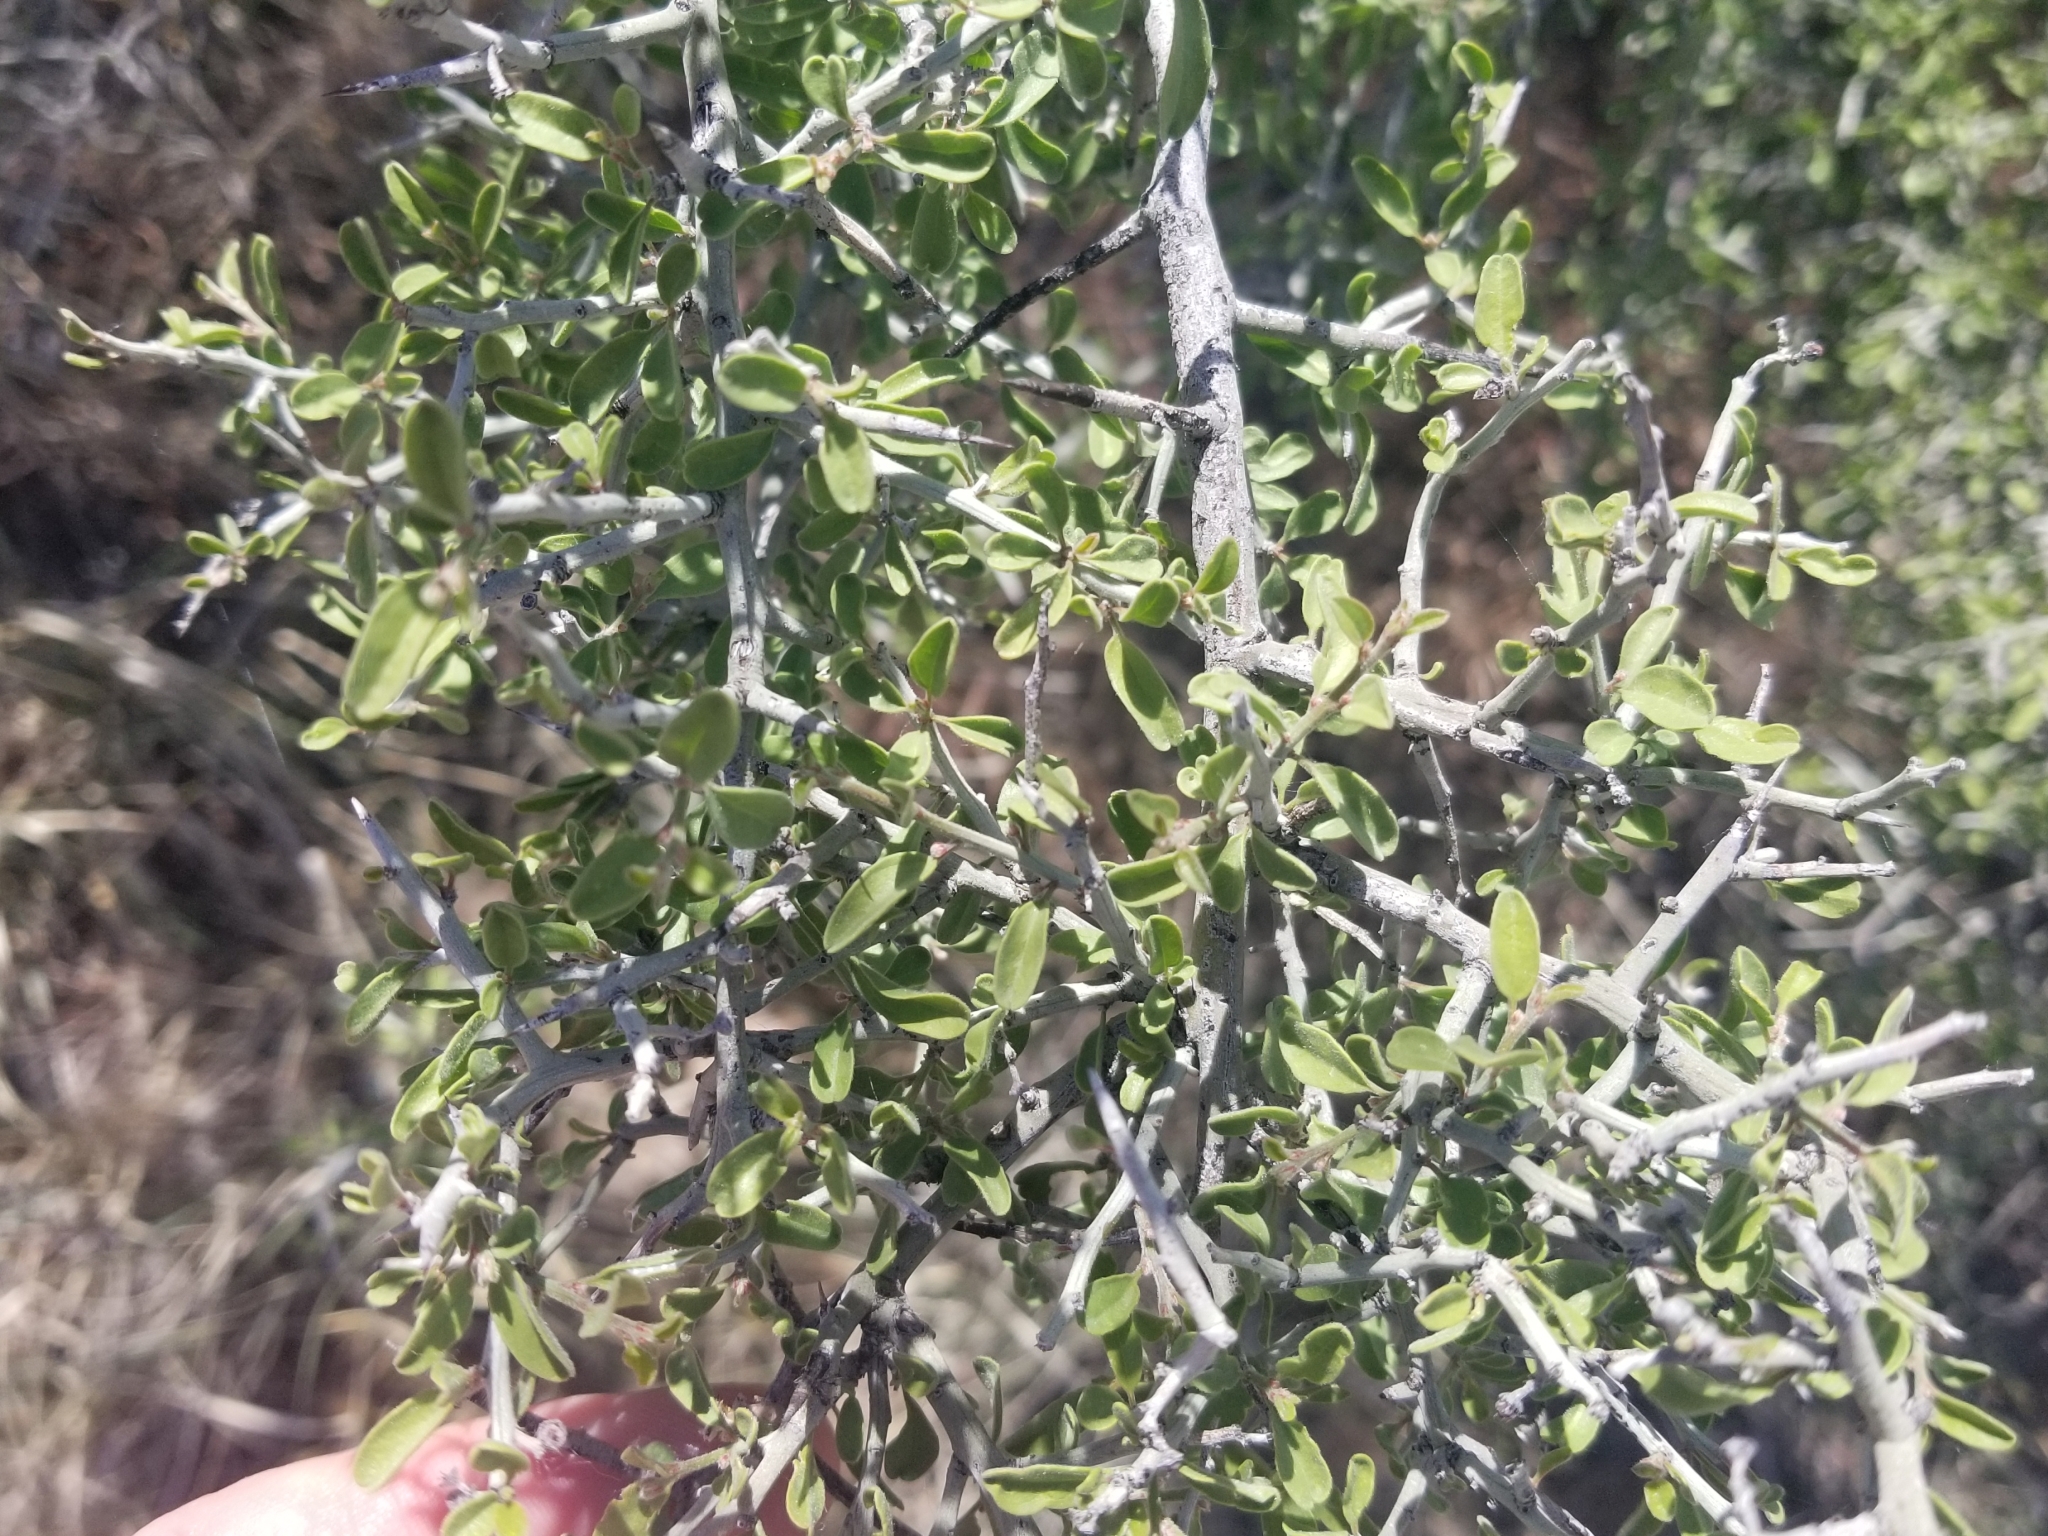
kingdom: Plantae
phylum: Tracheophyta
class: Magnoliopsida
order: Rosales
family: Rhamnaceae
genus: Sarcomphalus
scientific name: Sarcomphalus obtusifolius
